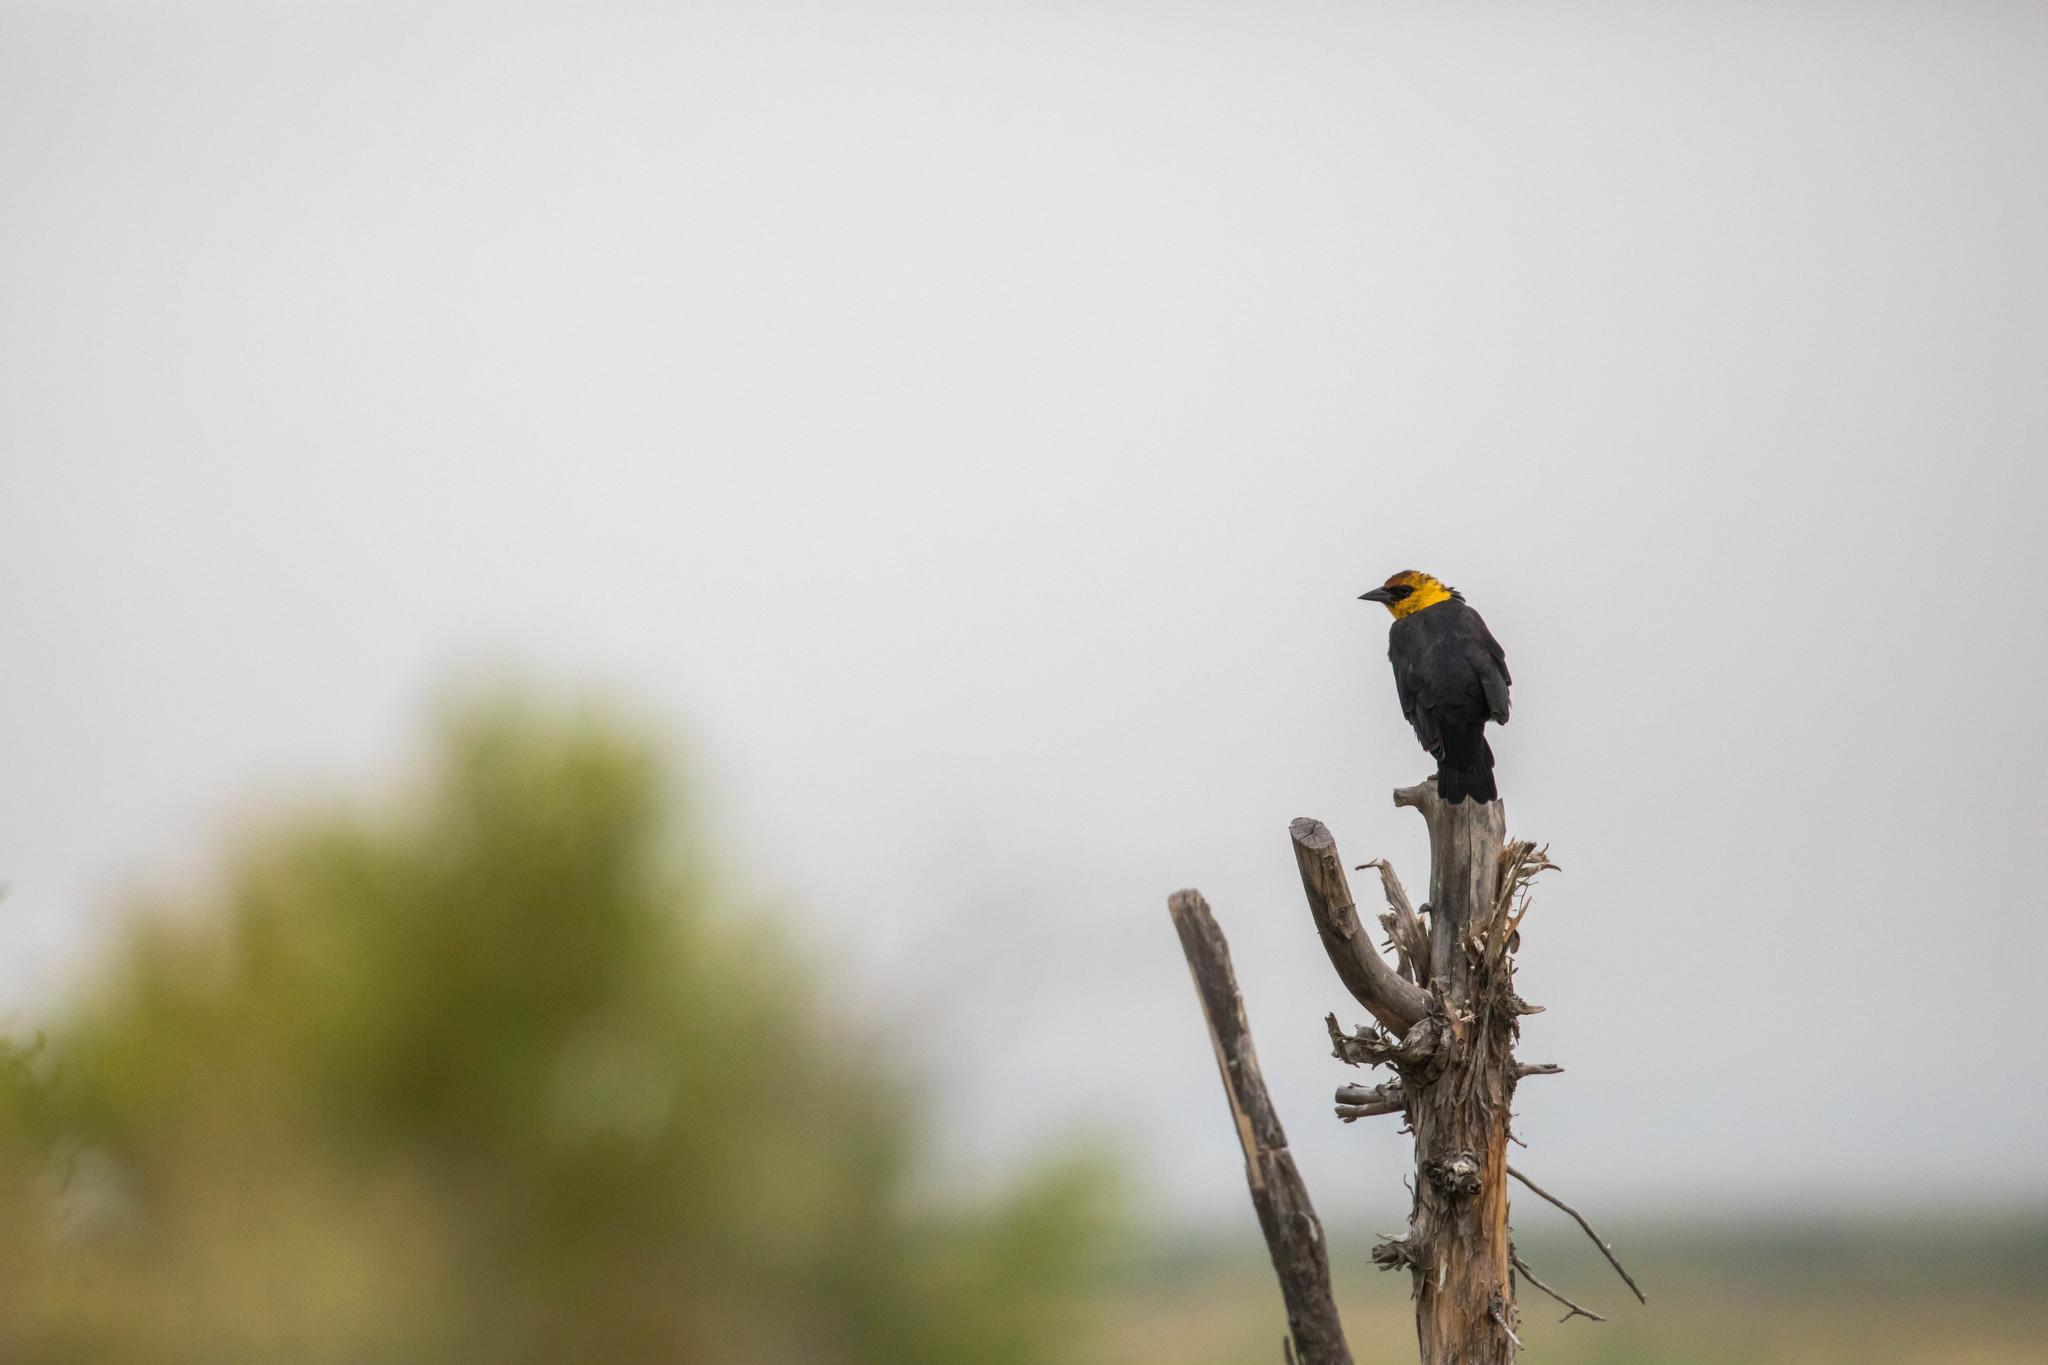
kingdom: Animalia
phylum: Chordata
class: Aves
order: Passeriformes
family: Icteridae
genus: Xanthocephalus
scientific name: Xanthocephalus xanthocephalus
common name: Yellow-headed blackbird
